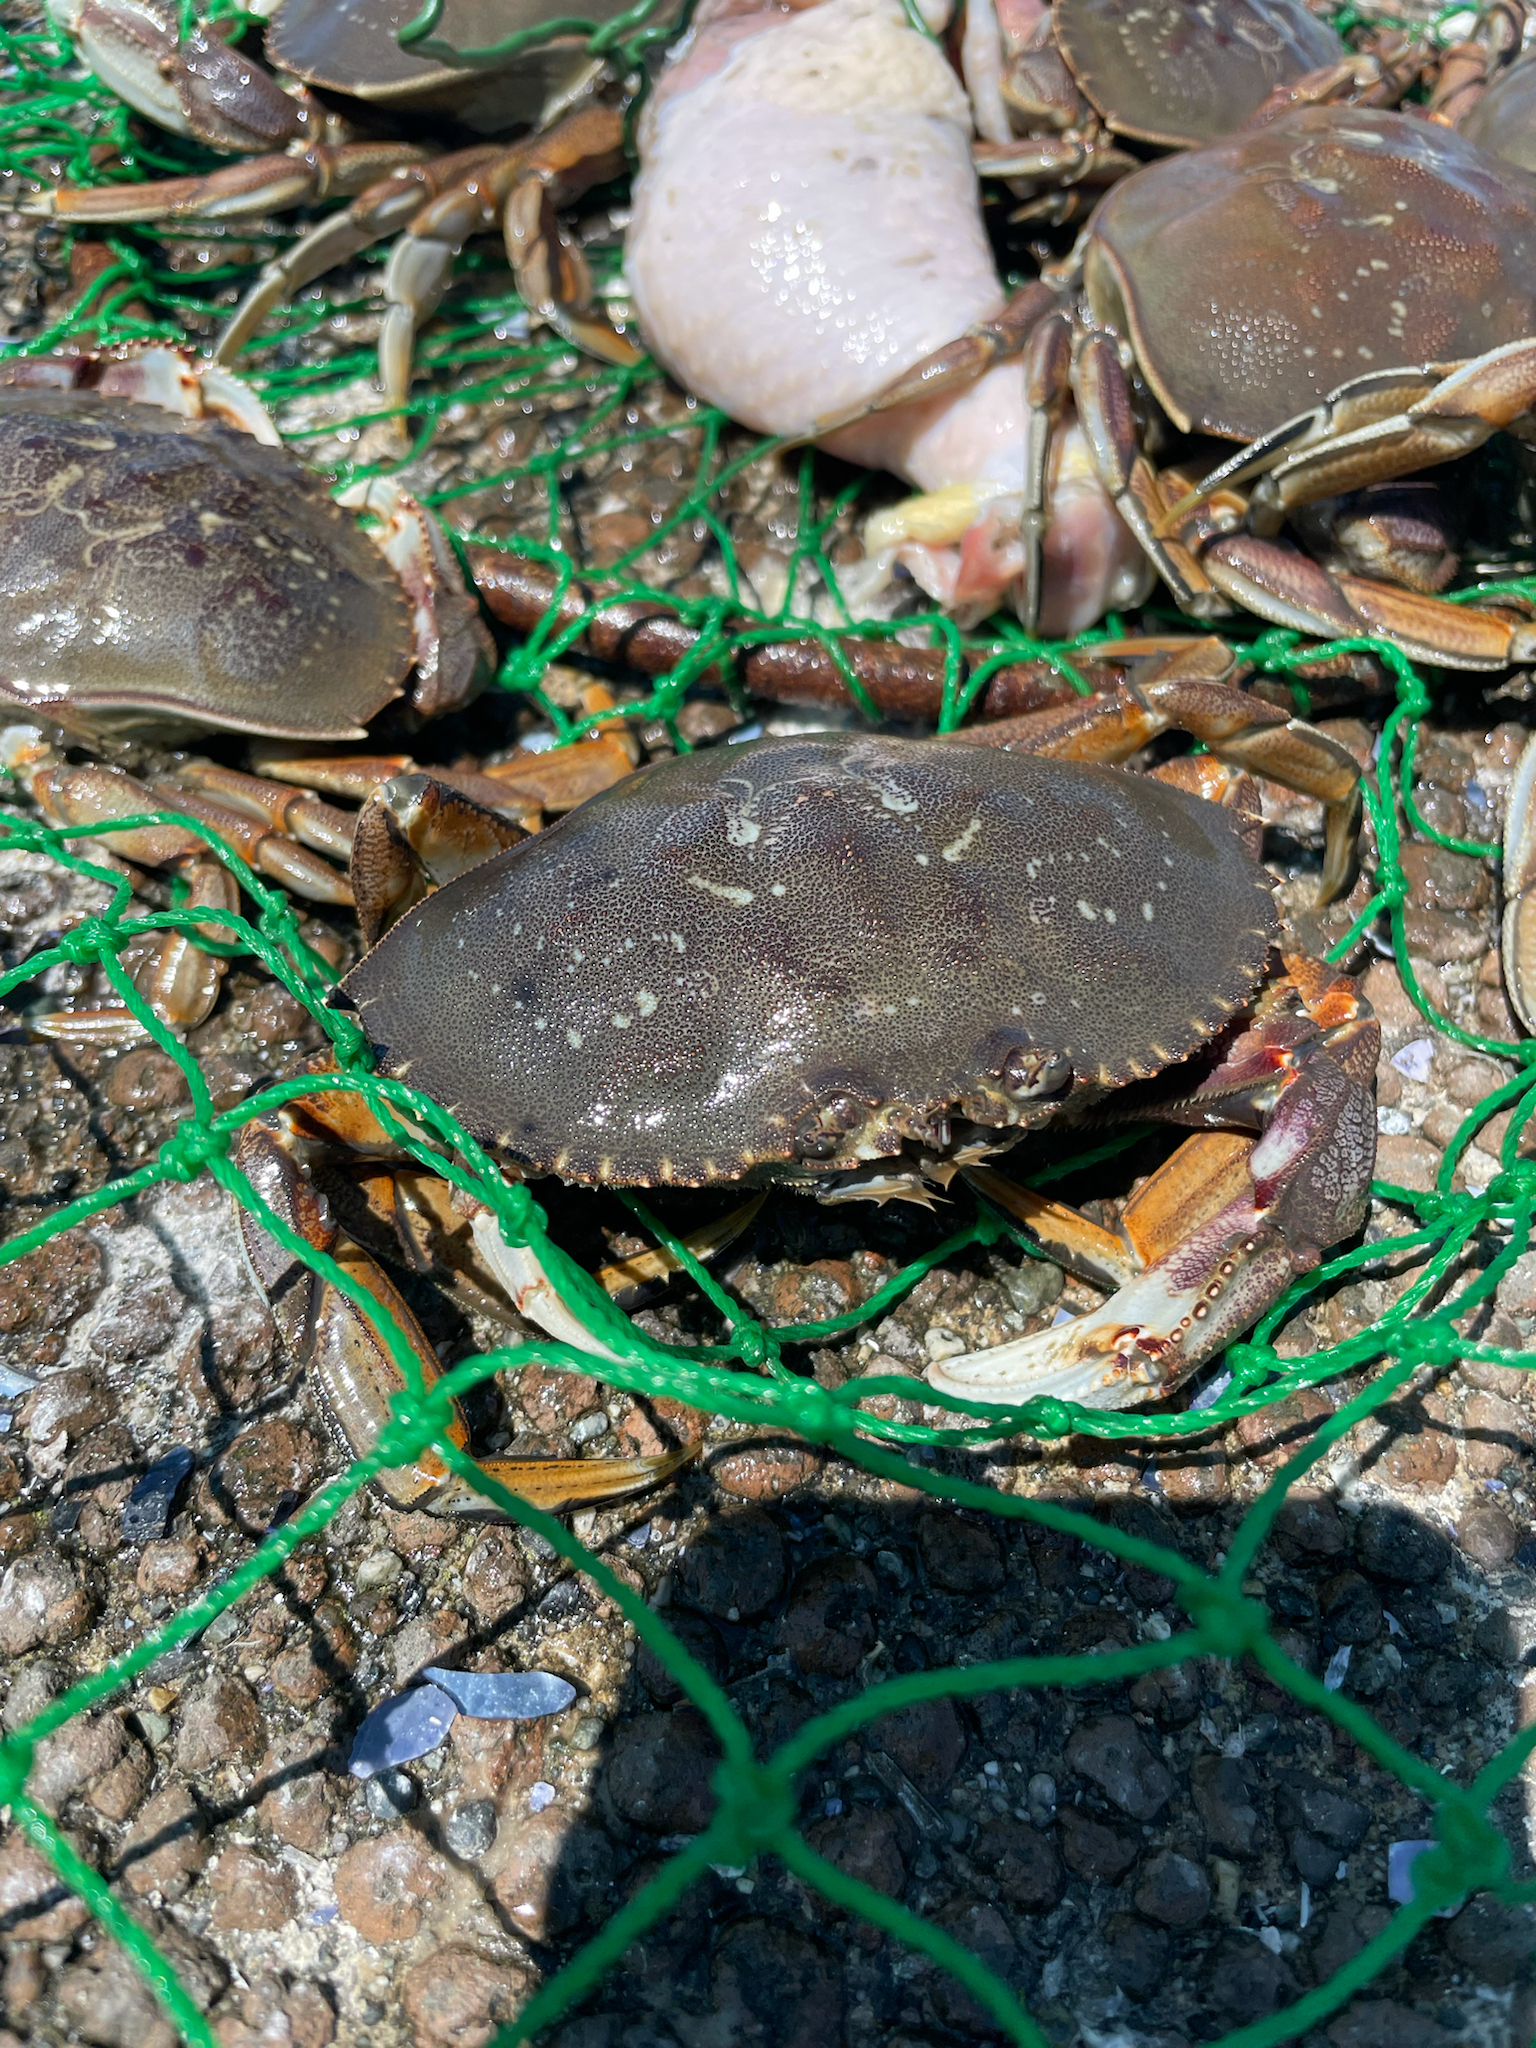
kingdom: Animalia
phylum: Arthropoda
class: Malacostraca
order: Decapoda
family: Cancridae
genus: Metacarcinus
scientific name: Metacarcinus magister
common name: Californian crab
